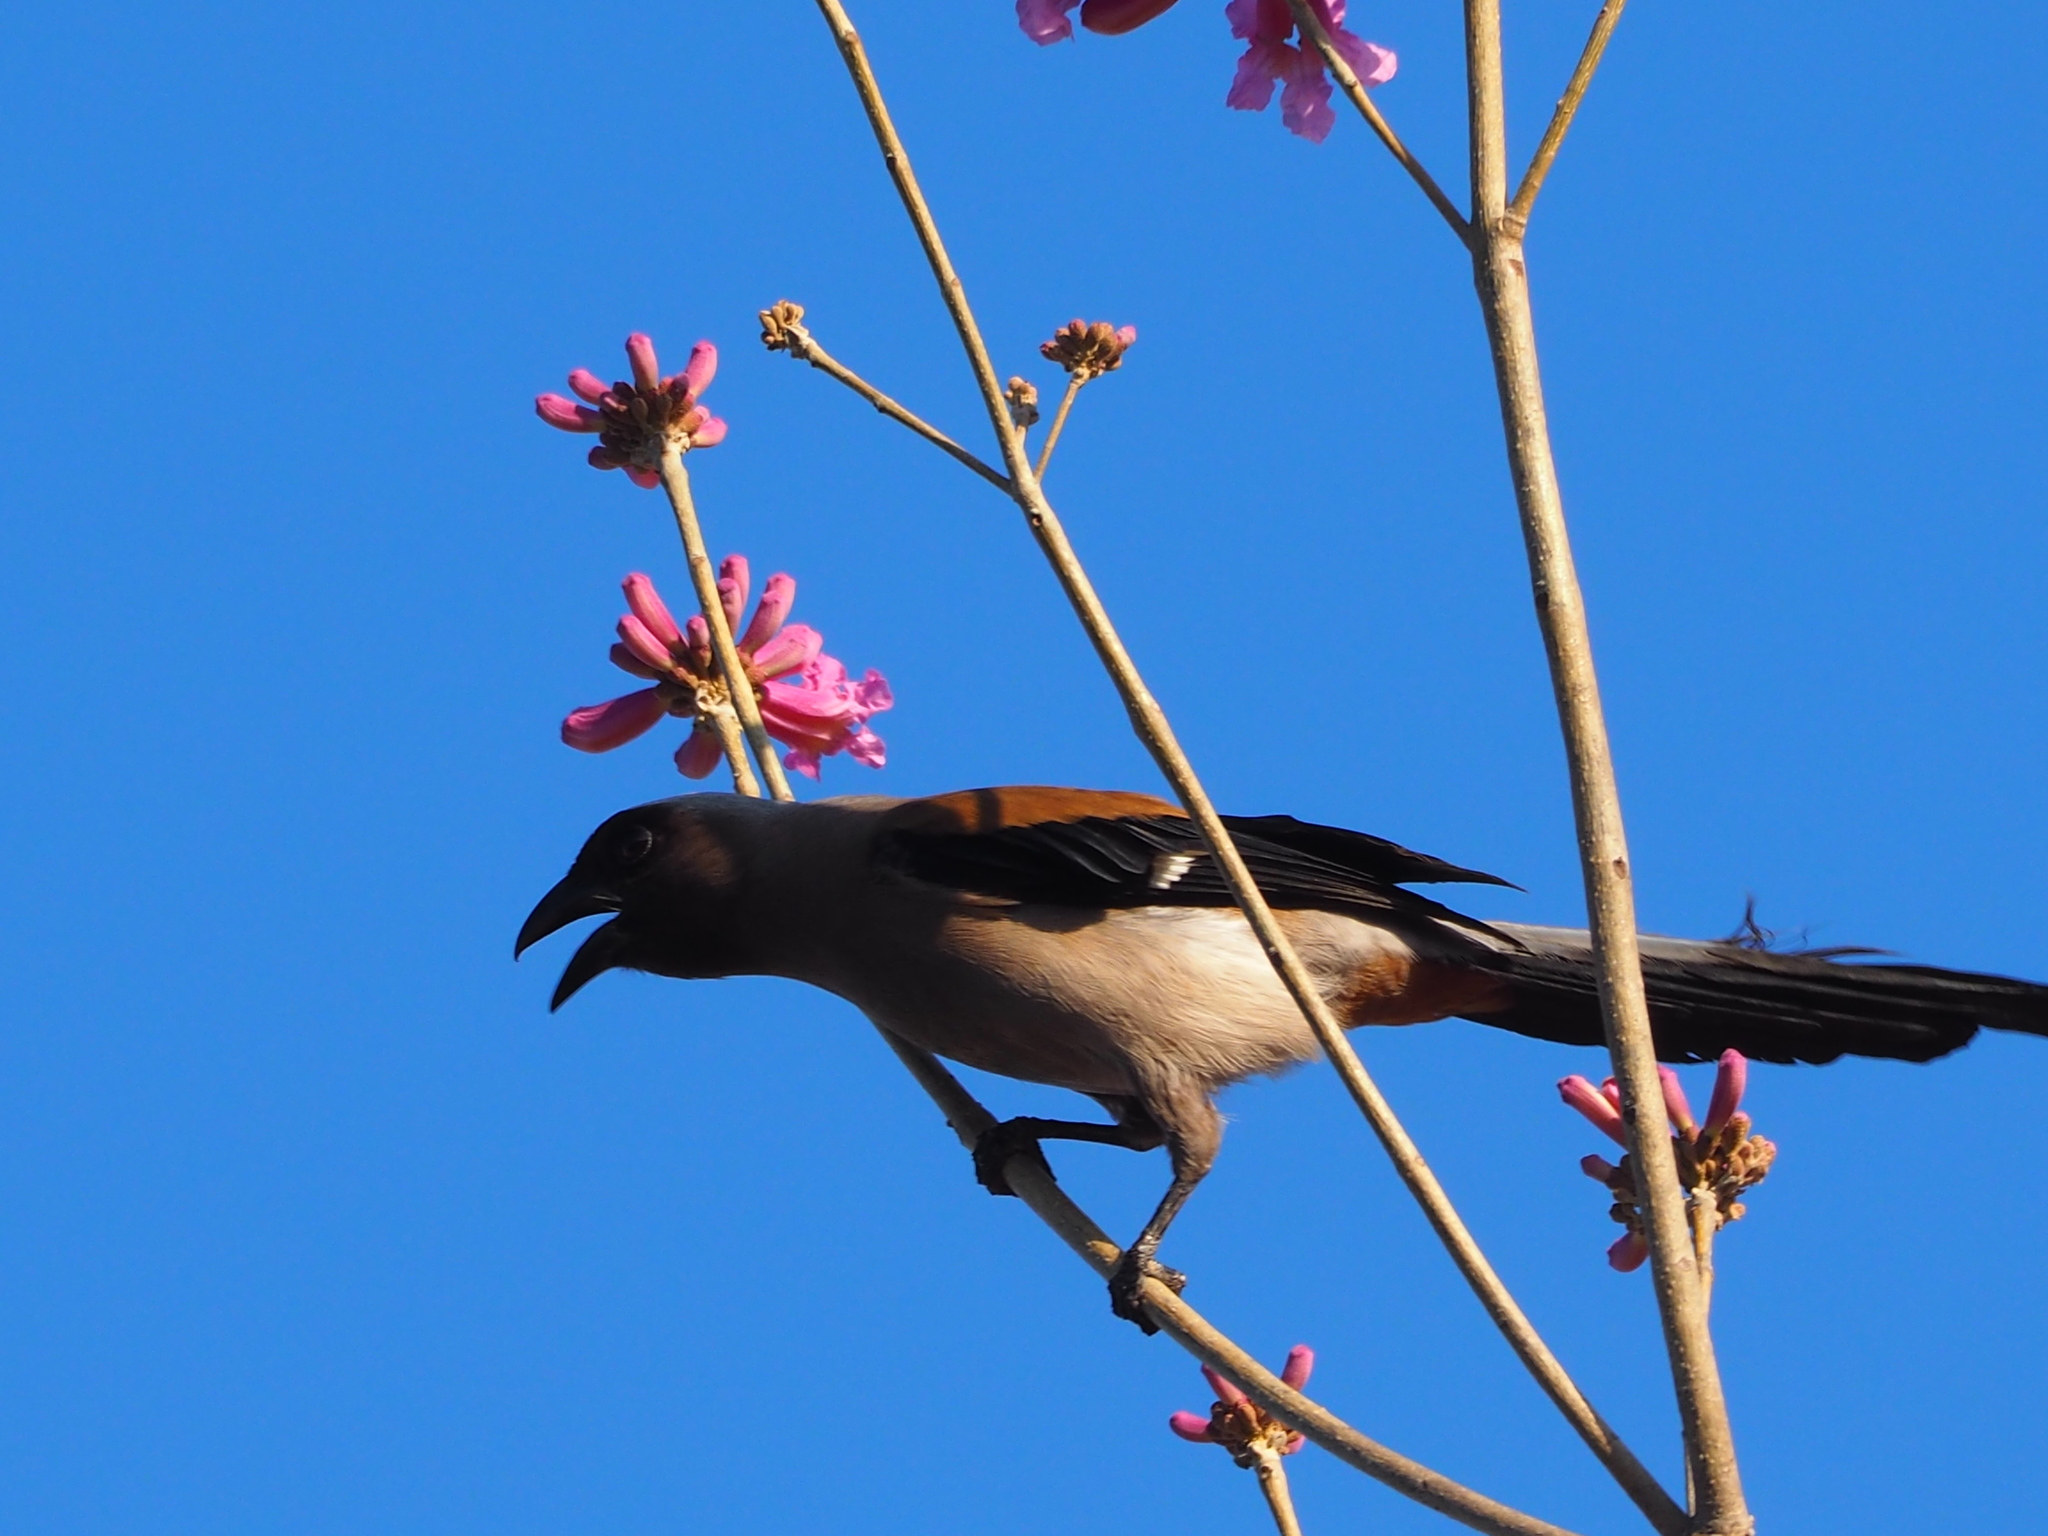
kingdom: Animalia
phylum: Chordata
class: Aves
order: Passeriformes
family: Corvidae
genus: Dendrocitta
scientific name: Dendrocitta formosae
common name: Grey treepie
